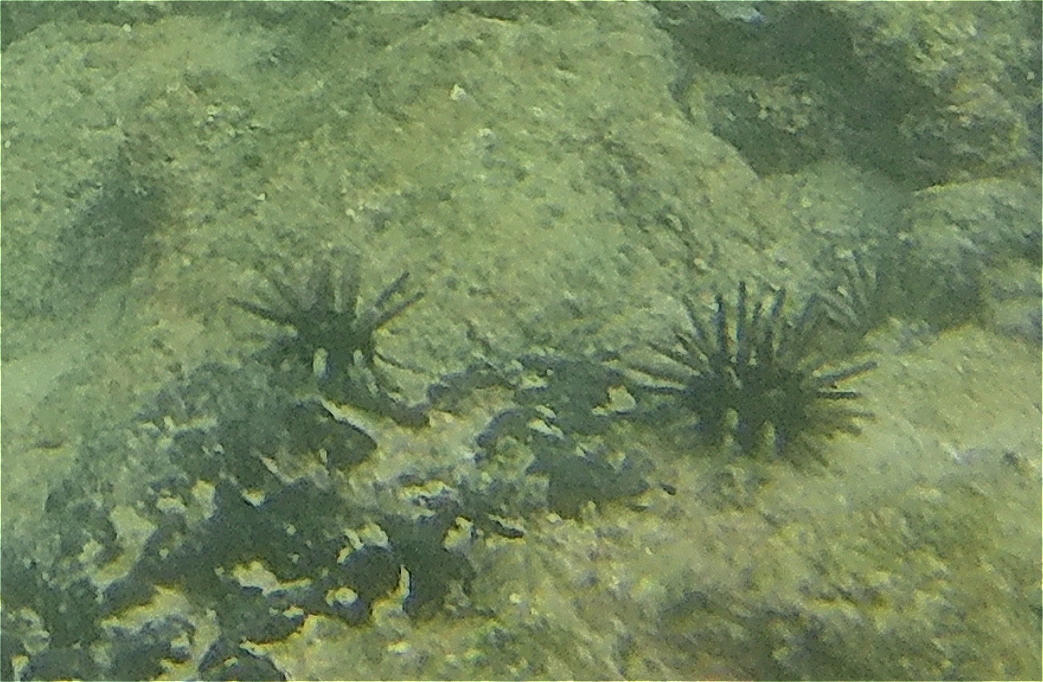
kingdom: Animalia
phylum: Echinodermata
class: Echinoidea
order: Cidaroida
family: Cidaridae
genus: Eucidaris
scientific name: Eucidaris galapagensis
